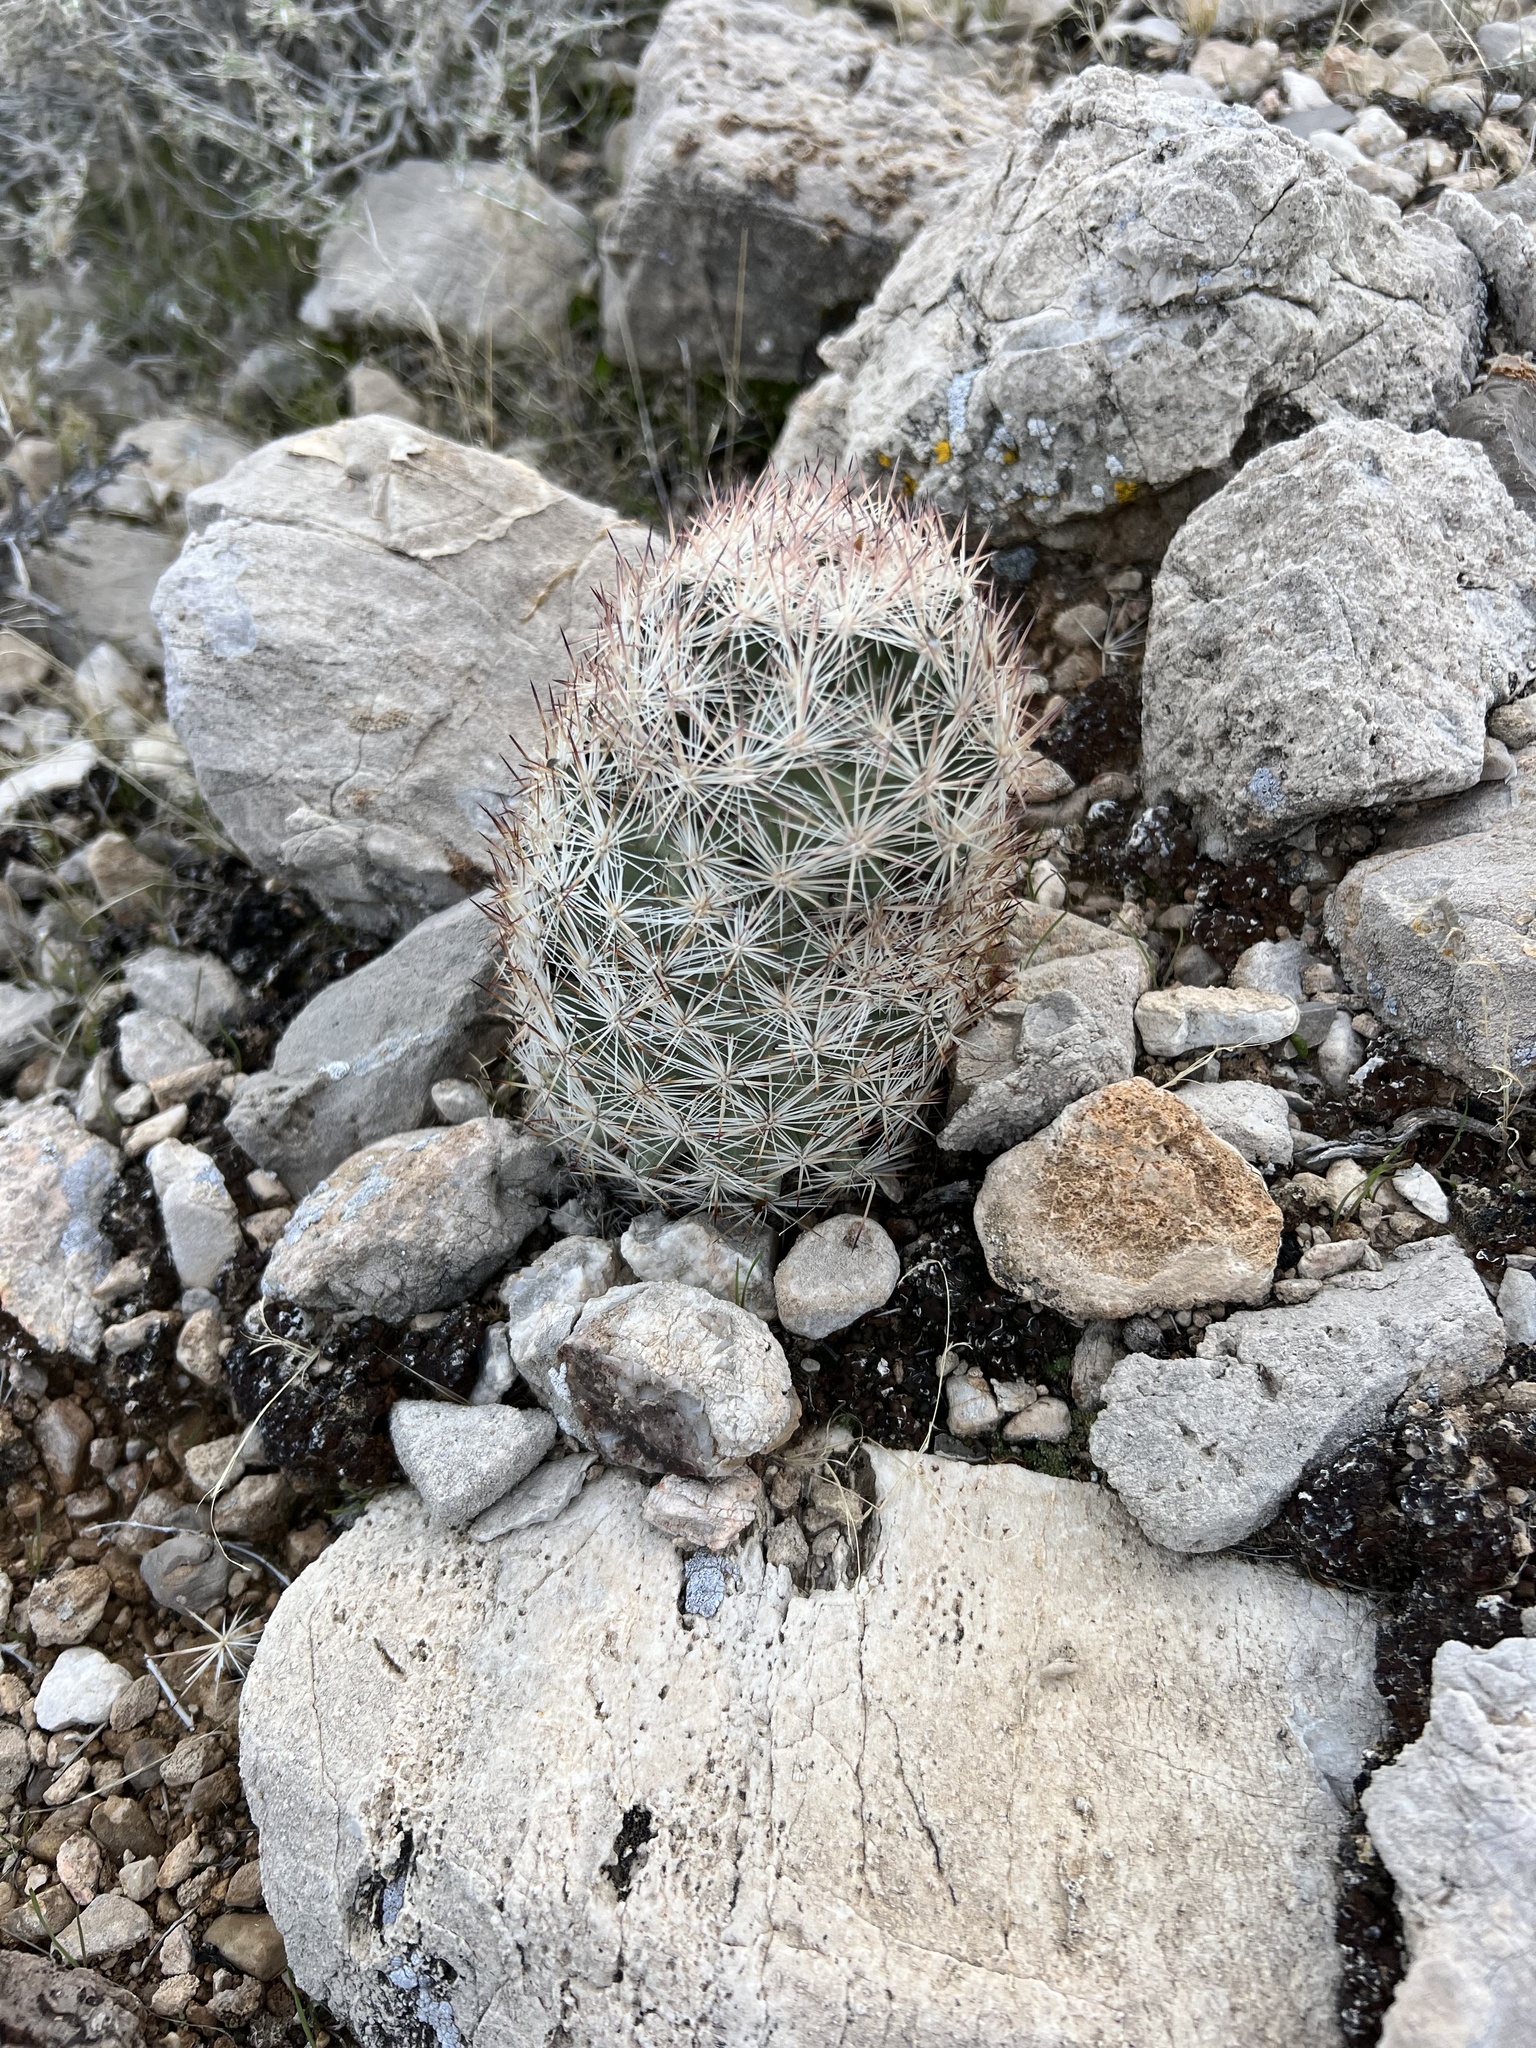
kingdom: Plantae
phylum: Tracheophyta
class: Magnoliopsida
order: Caryophyllales
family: Cactaceae
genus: Pelecyphora
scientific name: Pelecyphora dasyacantha
